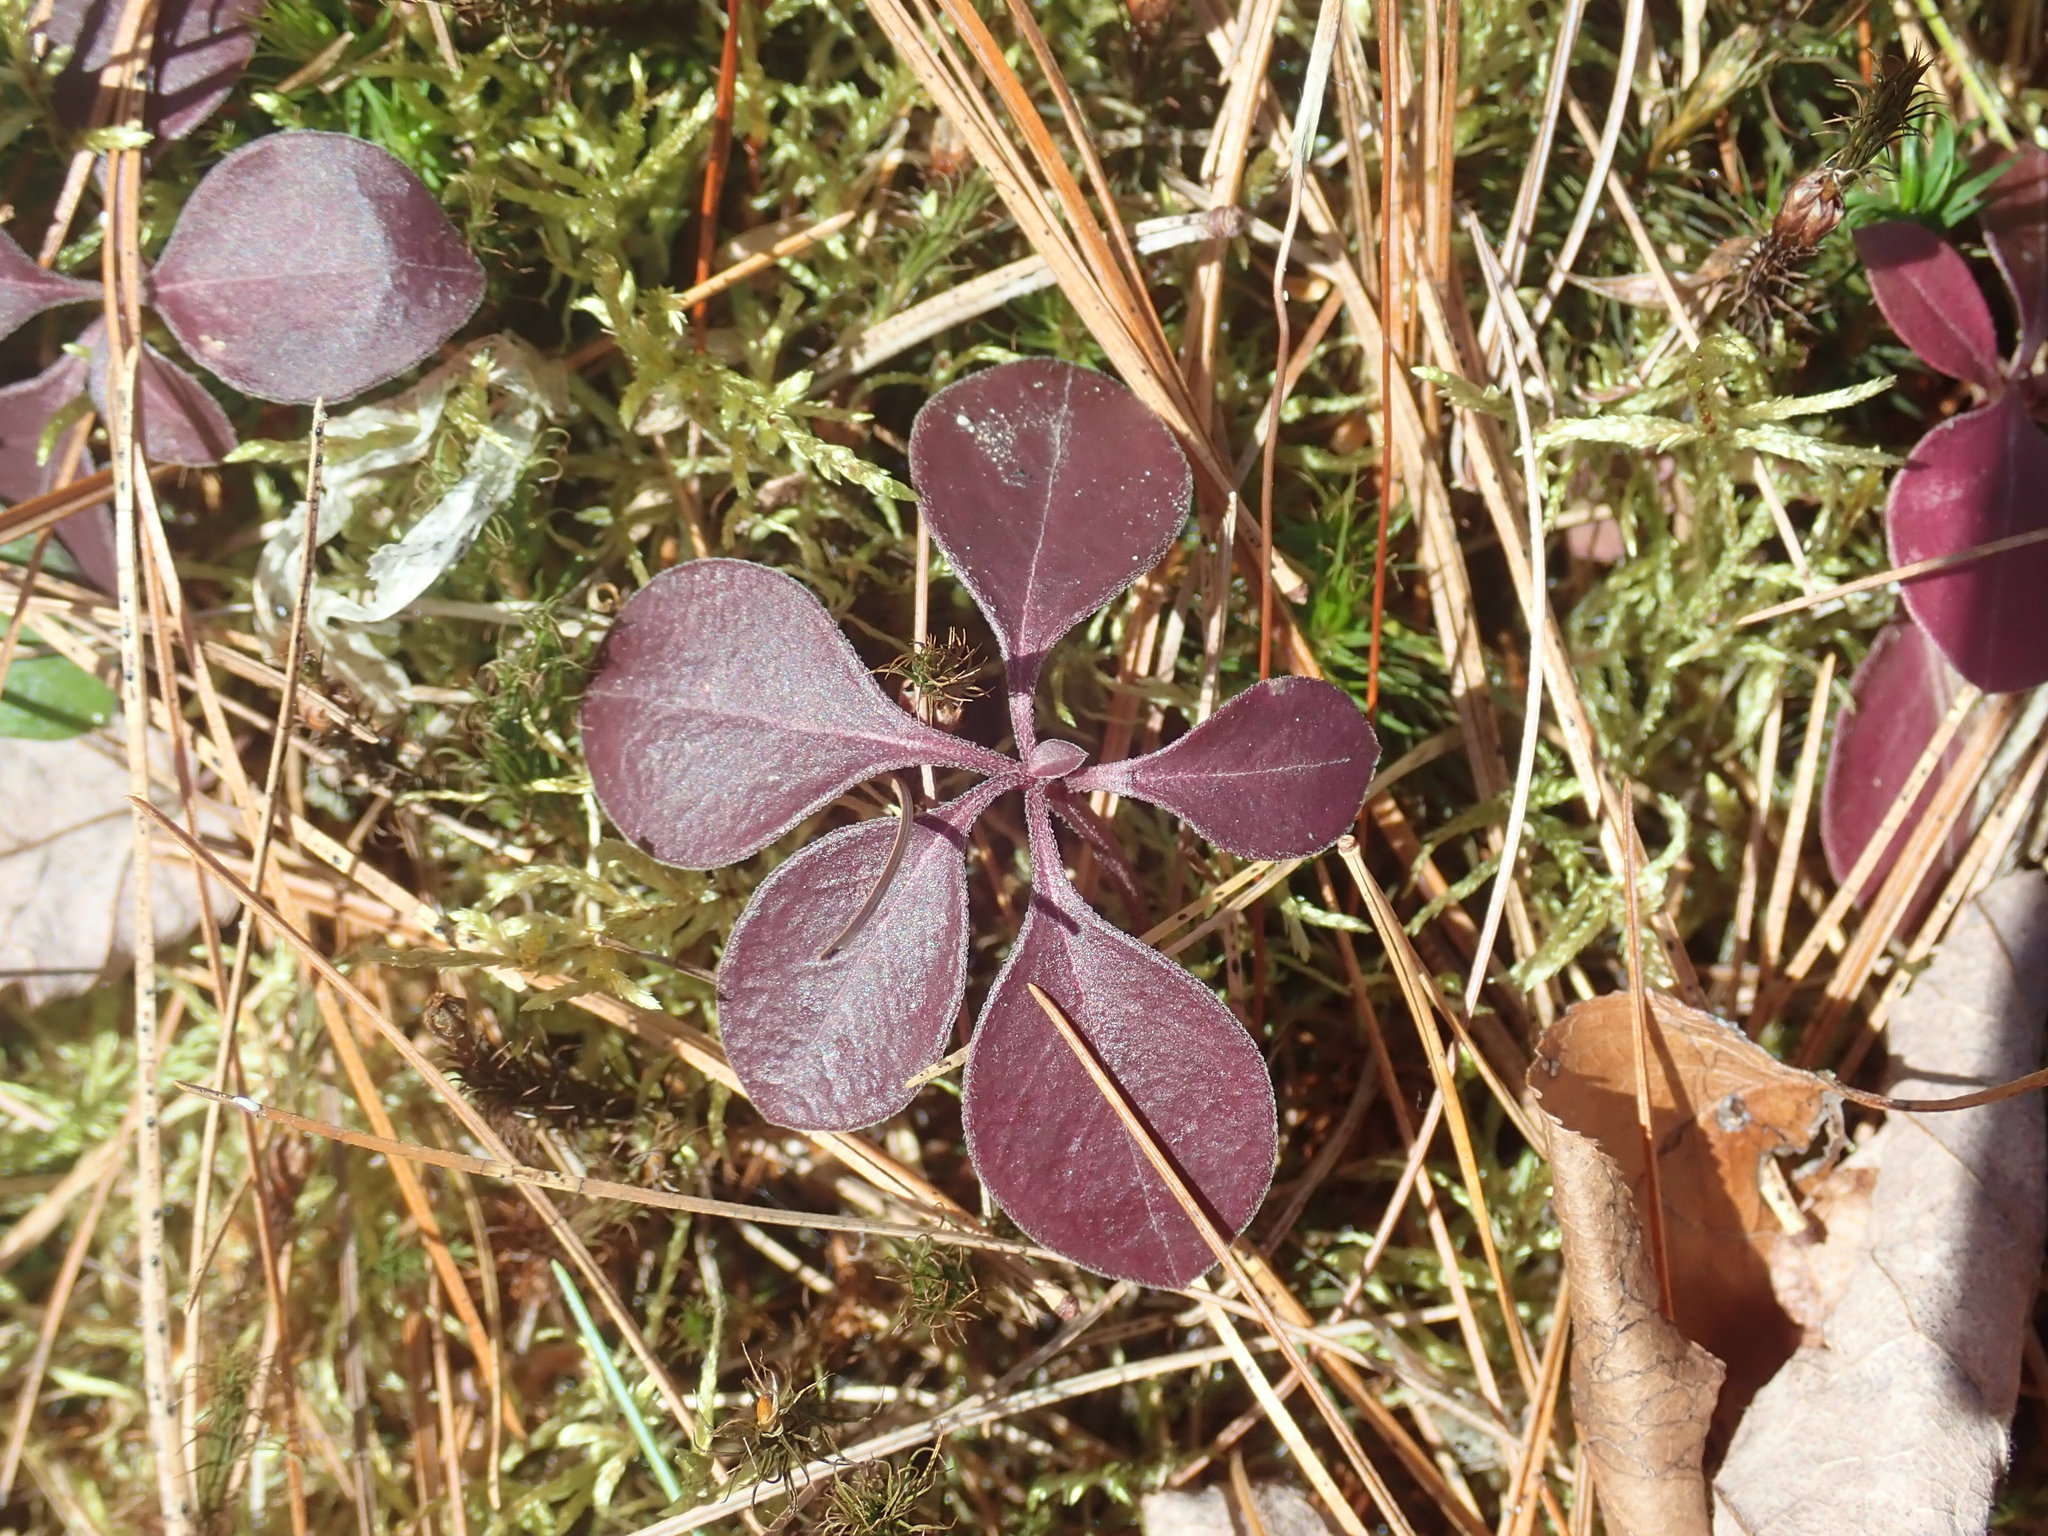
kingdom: Plantae
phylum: Tracheophyta
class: Magnoliopsida
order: Fabales
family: Polygalaceae
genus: Polygaloides
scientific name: Polygaloides paucifolia
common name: Bird-on-the-wing
